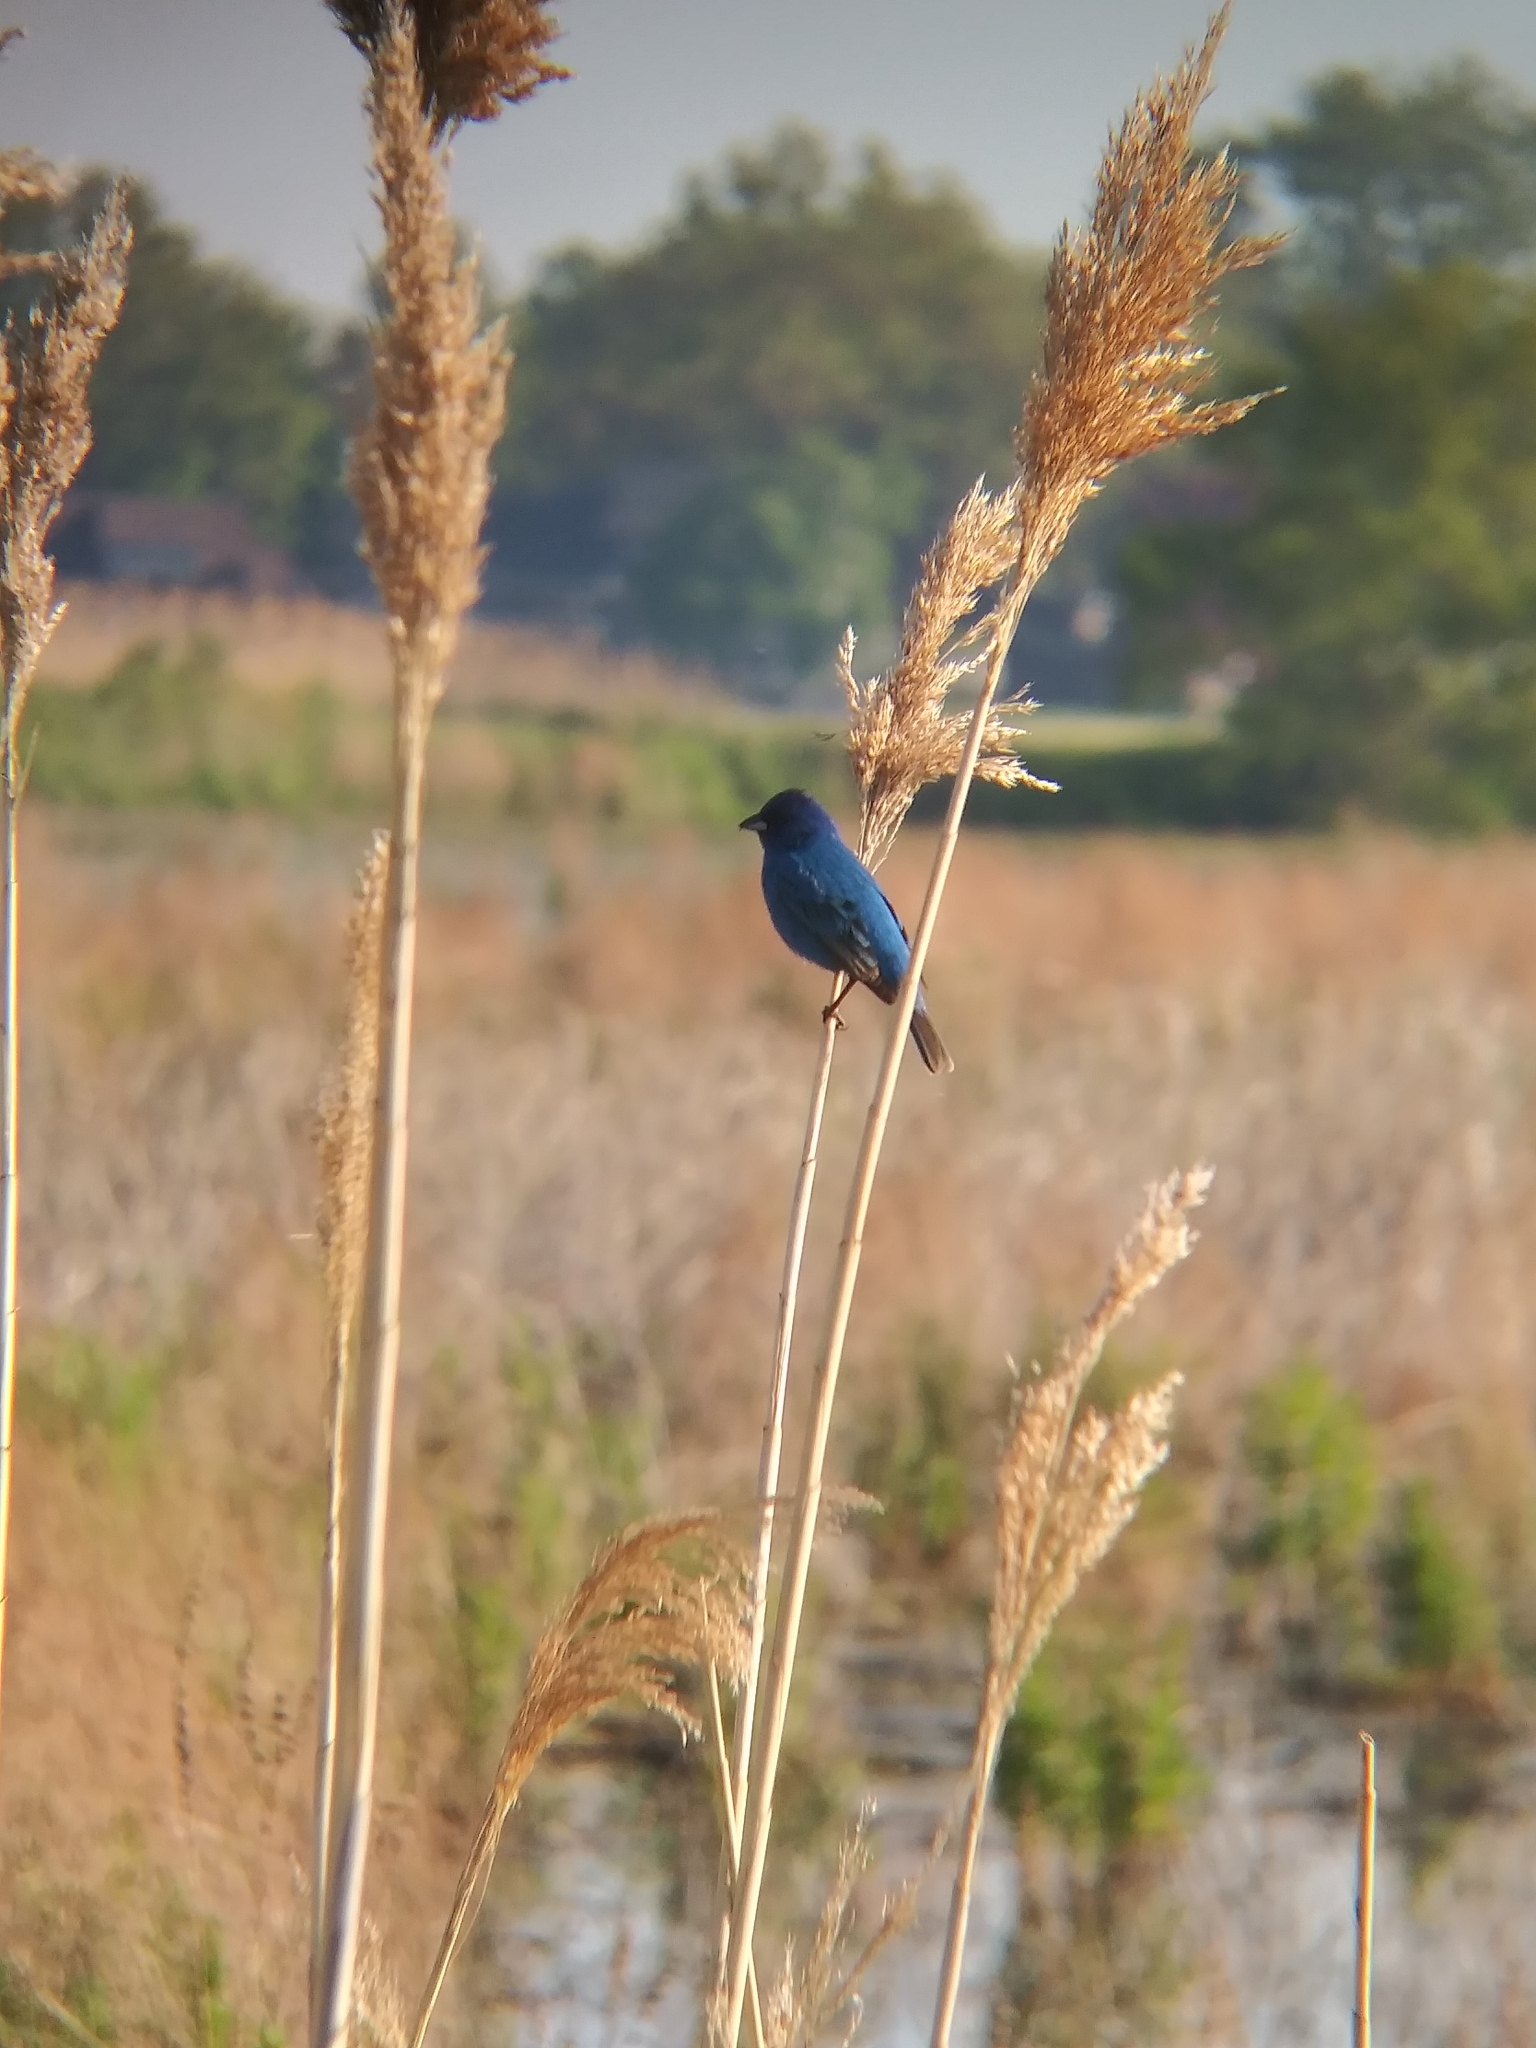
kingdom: Animalia
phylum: Chordata
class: Aves
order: Passeriformes
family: Cardinalidae
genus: Passerina
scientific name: Passerina cyanea
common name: Indigo bunting
